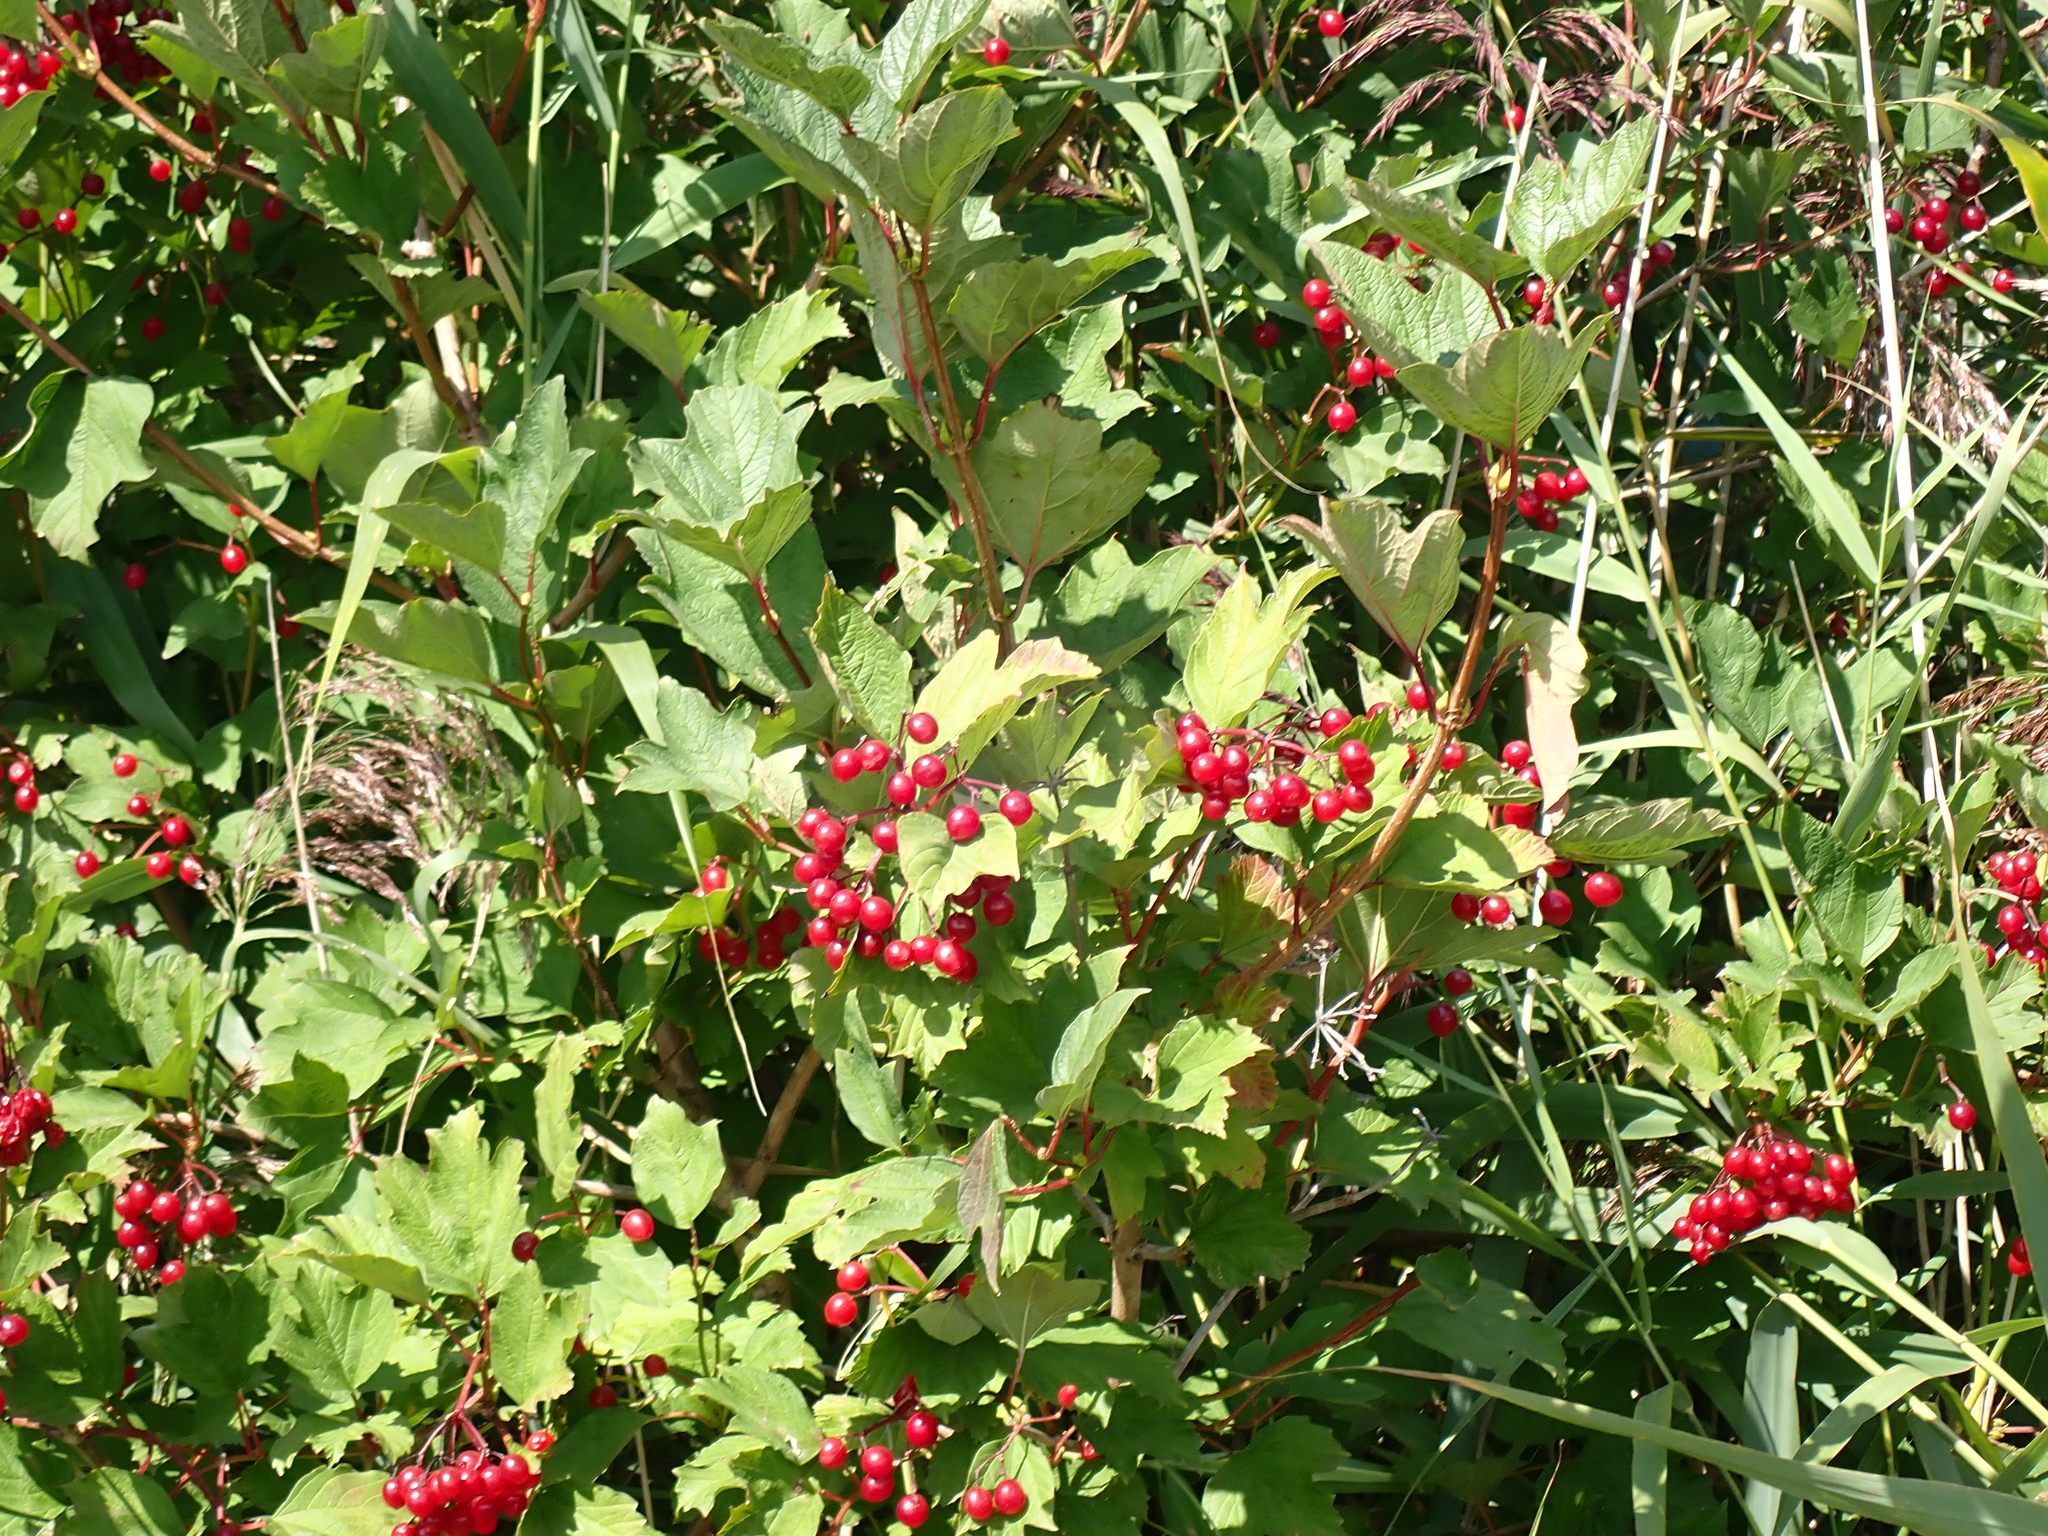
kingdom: Plantae
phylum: Tracheophyta
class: Magnoliopsida
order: Dipsacales
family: Viburnaceae
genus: Viburnum
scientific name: Viburnum opulus
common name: Guelder-rose
